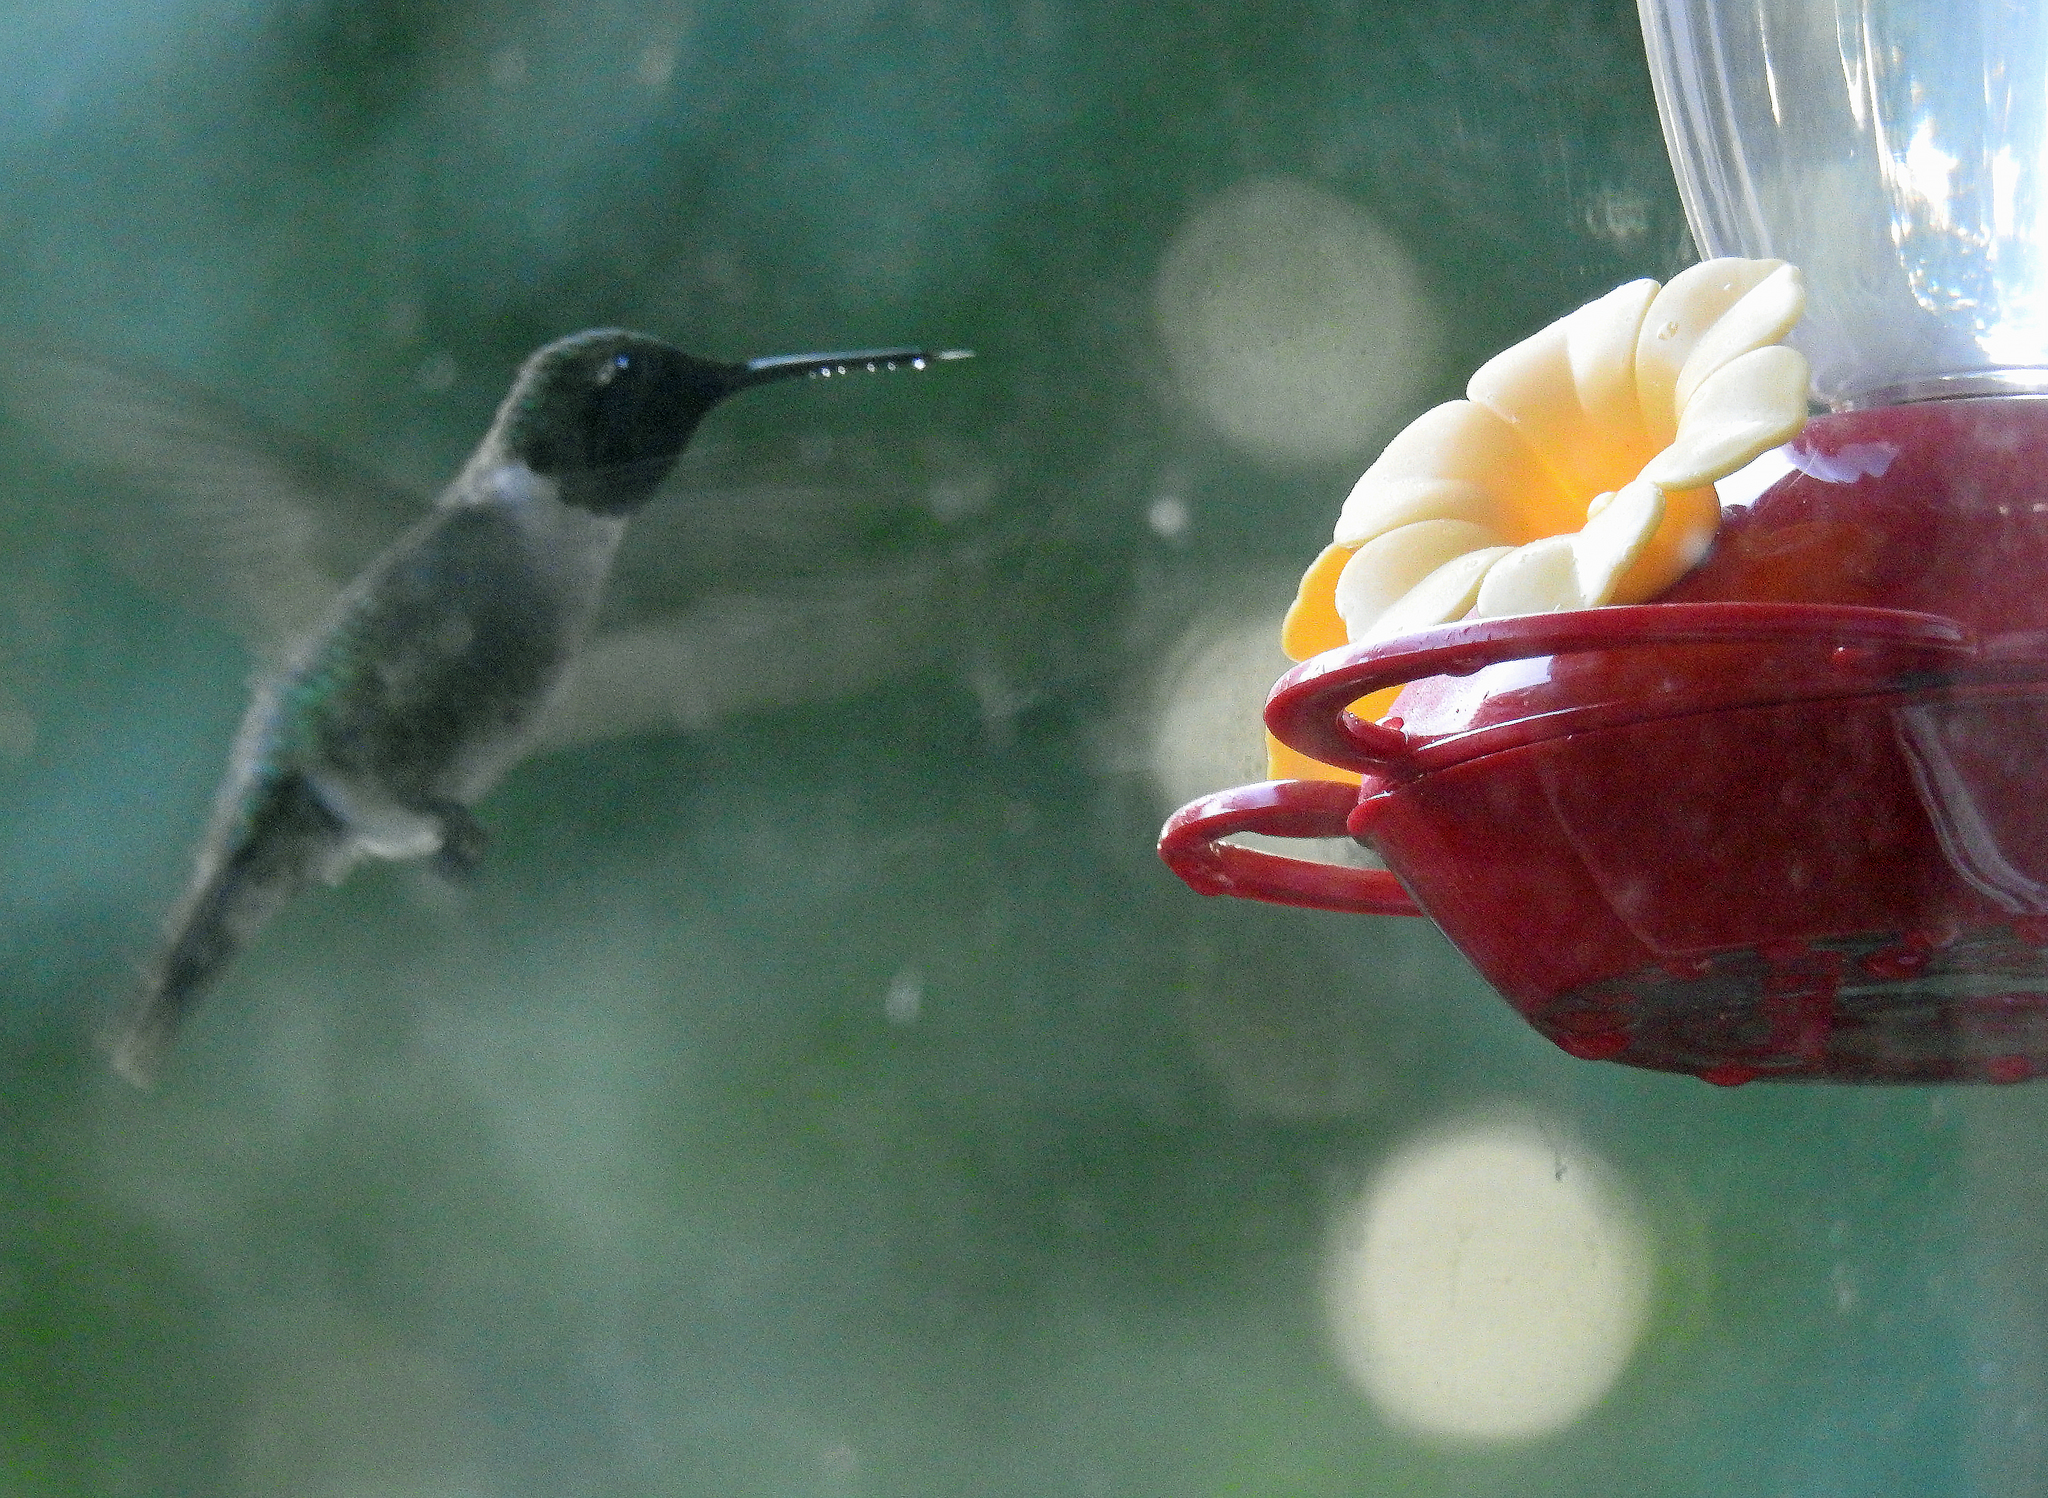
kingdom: Animalia
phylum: Chordata
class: Aves
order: Apodiformes
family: Trochilidae
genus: Archilochus
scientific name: Archilochus colubris
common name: Ruby-throated hummingbird
